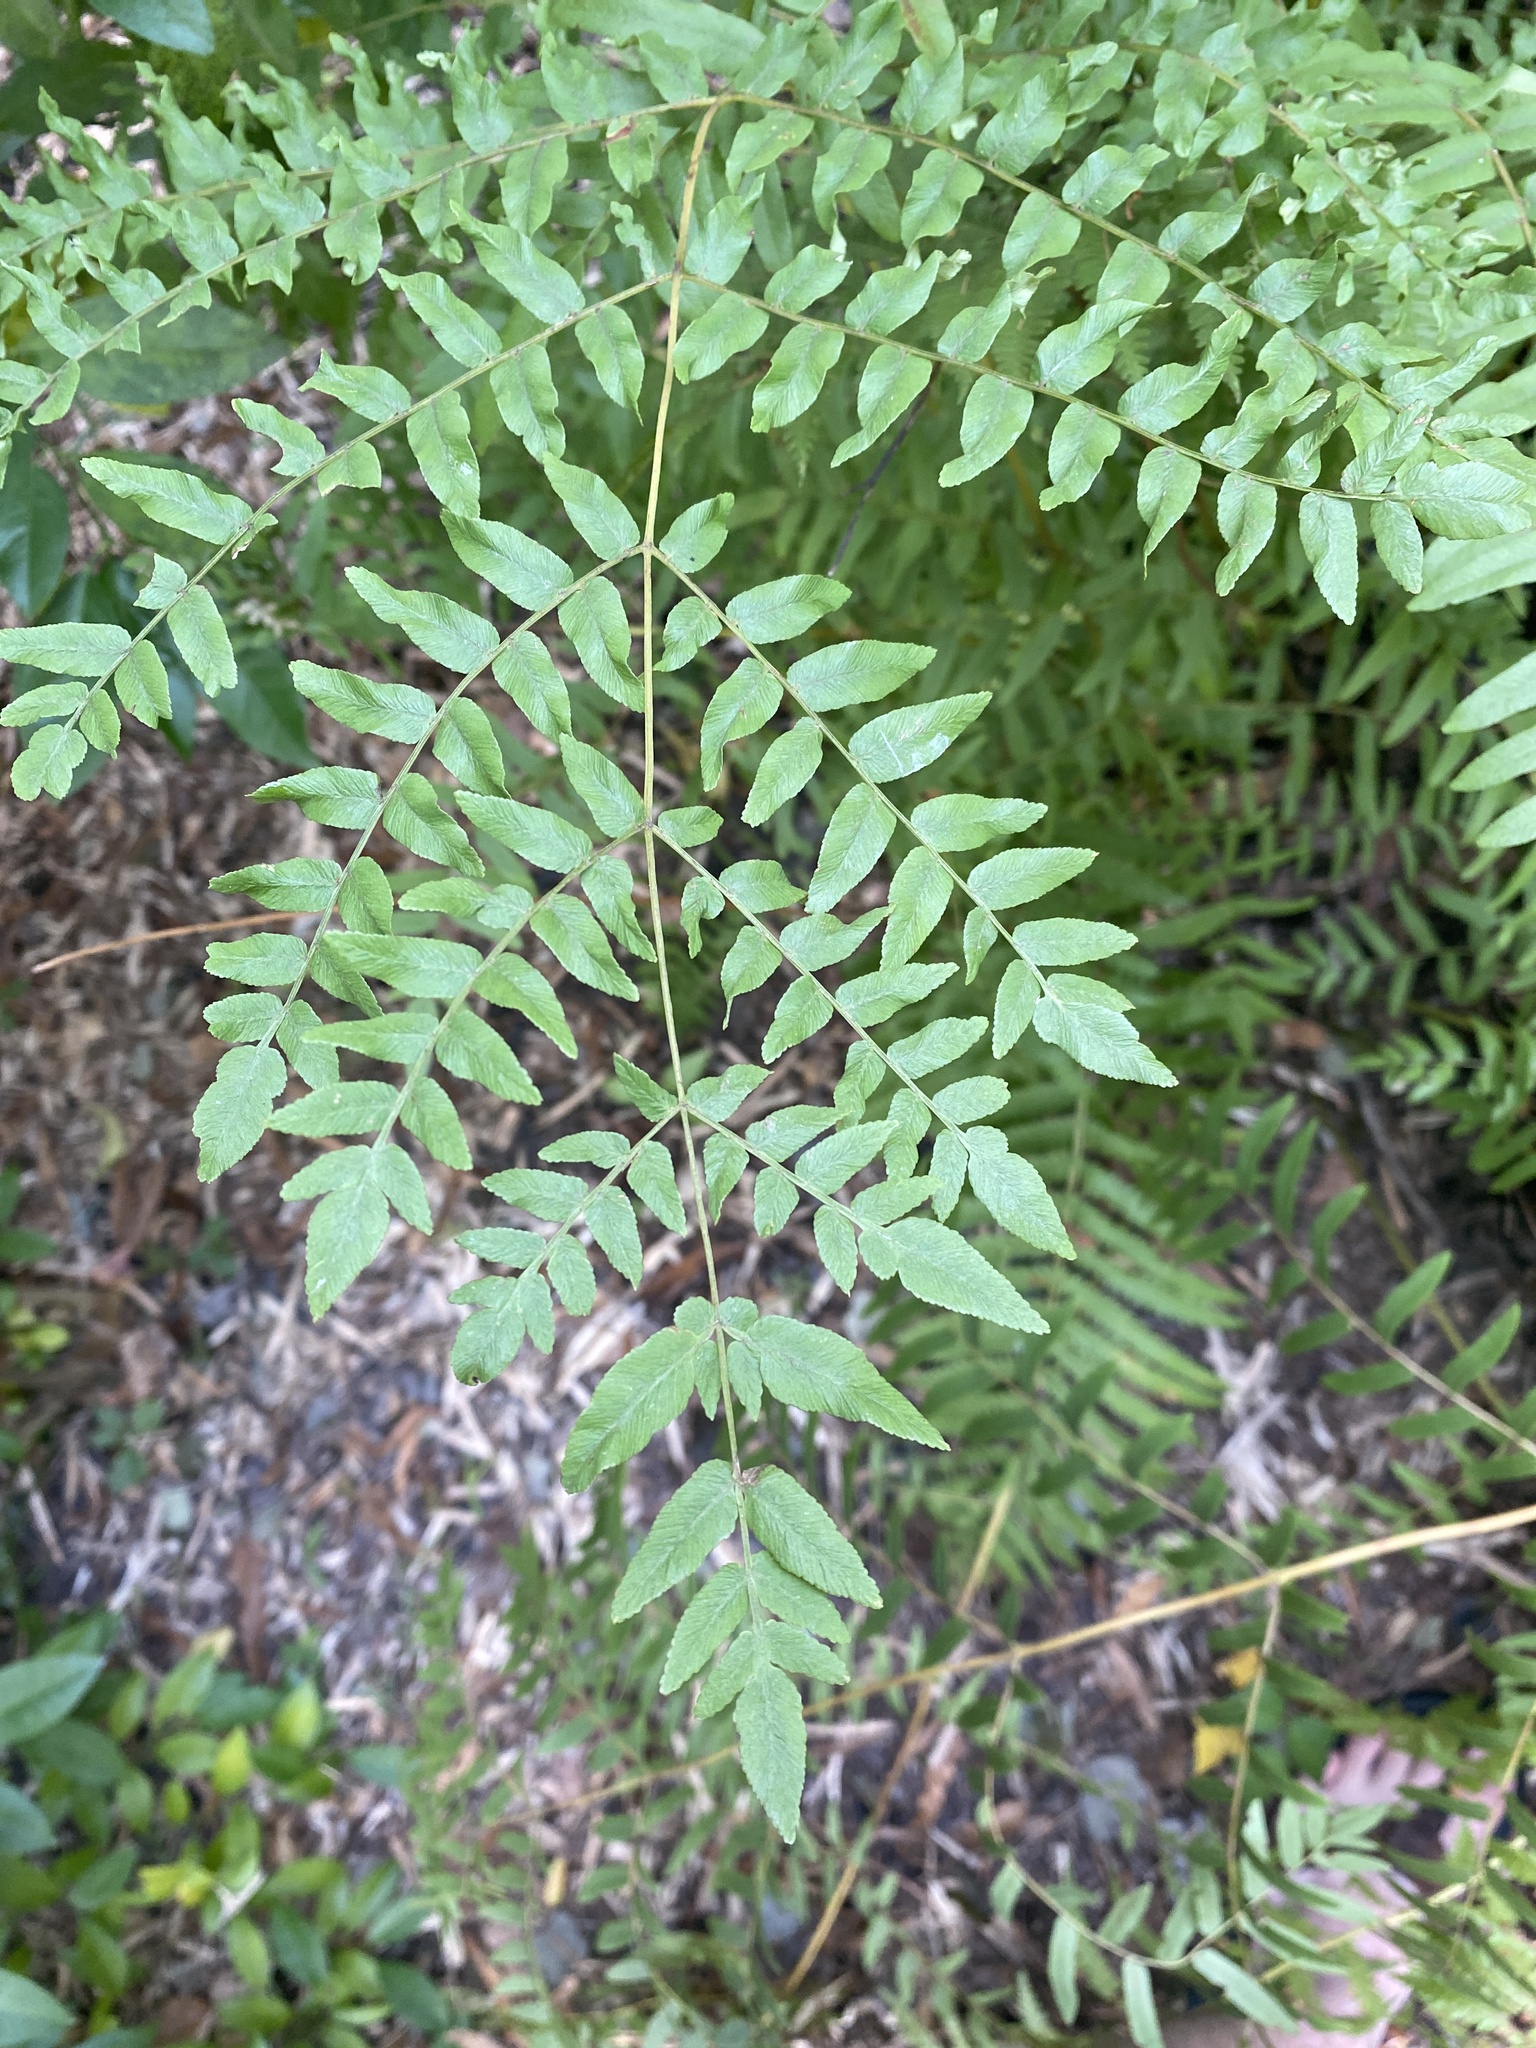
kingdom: Plantae
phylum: Tracheophyta
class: Polypodiopsida
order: Osmundales
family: Osmundaceae
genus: Osmunda
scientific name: Osmunda spectabilis
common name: American royal fern
